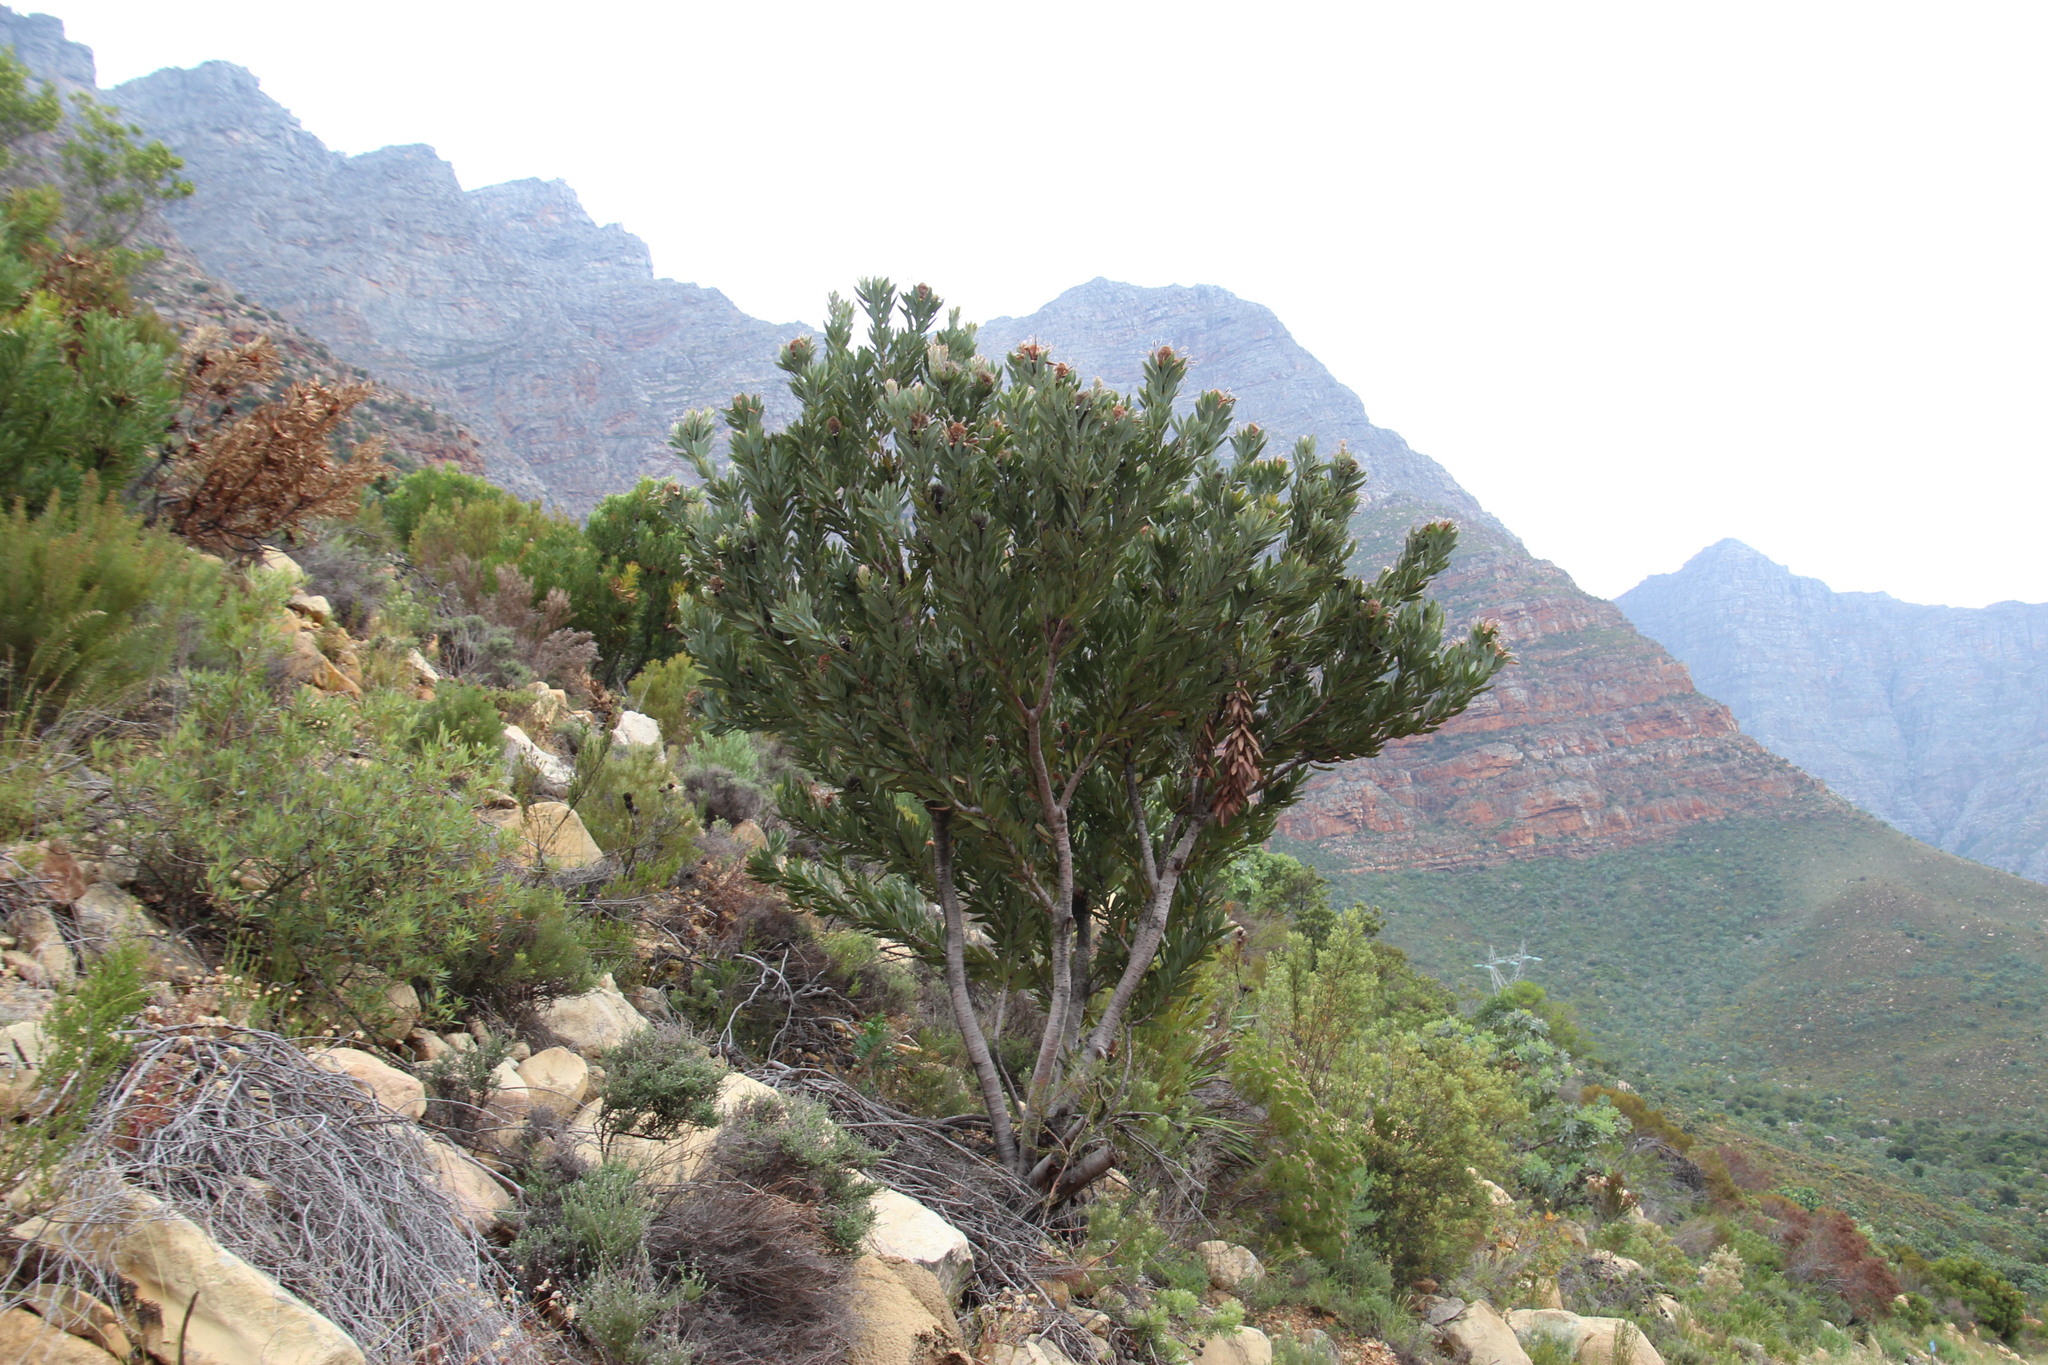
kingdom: Plantae
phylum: Tracheophyta
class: Magnoliopsida
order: Proteales
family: Proteaceae
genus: Protea
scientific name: Protea laurifolia
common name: Grey-leaf sugarbsh
